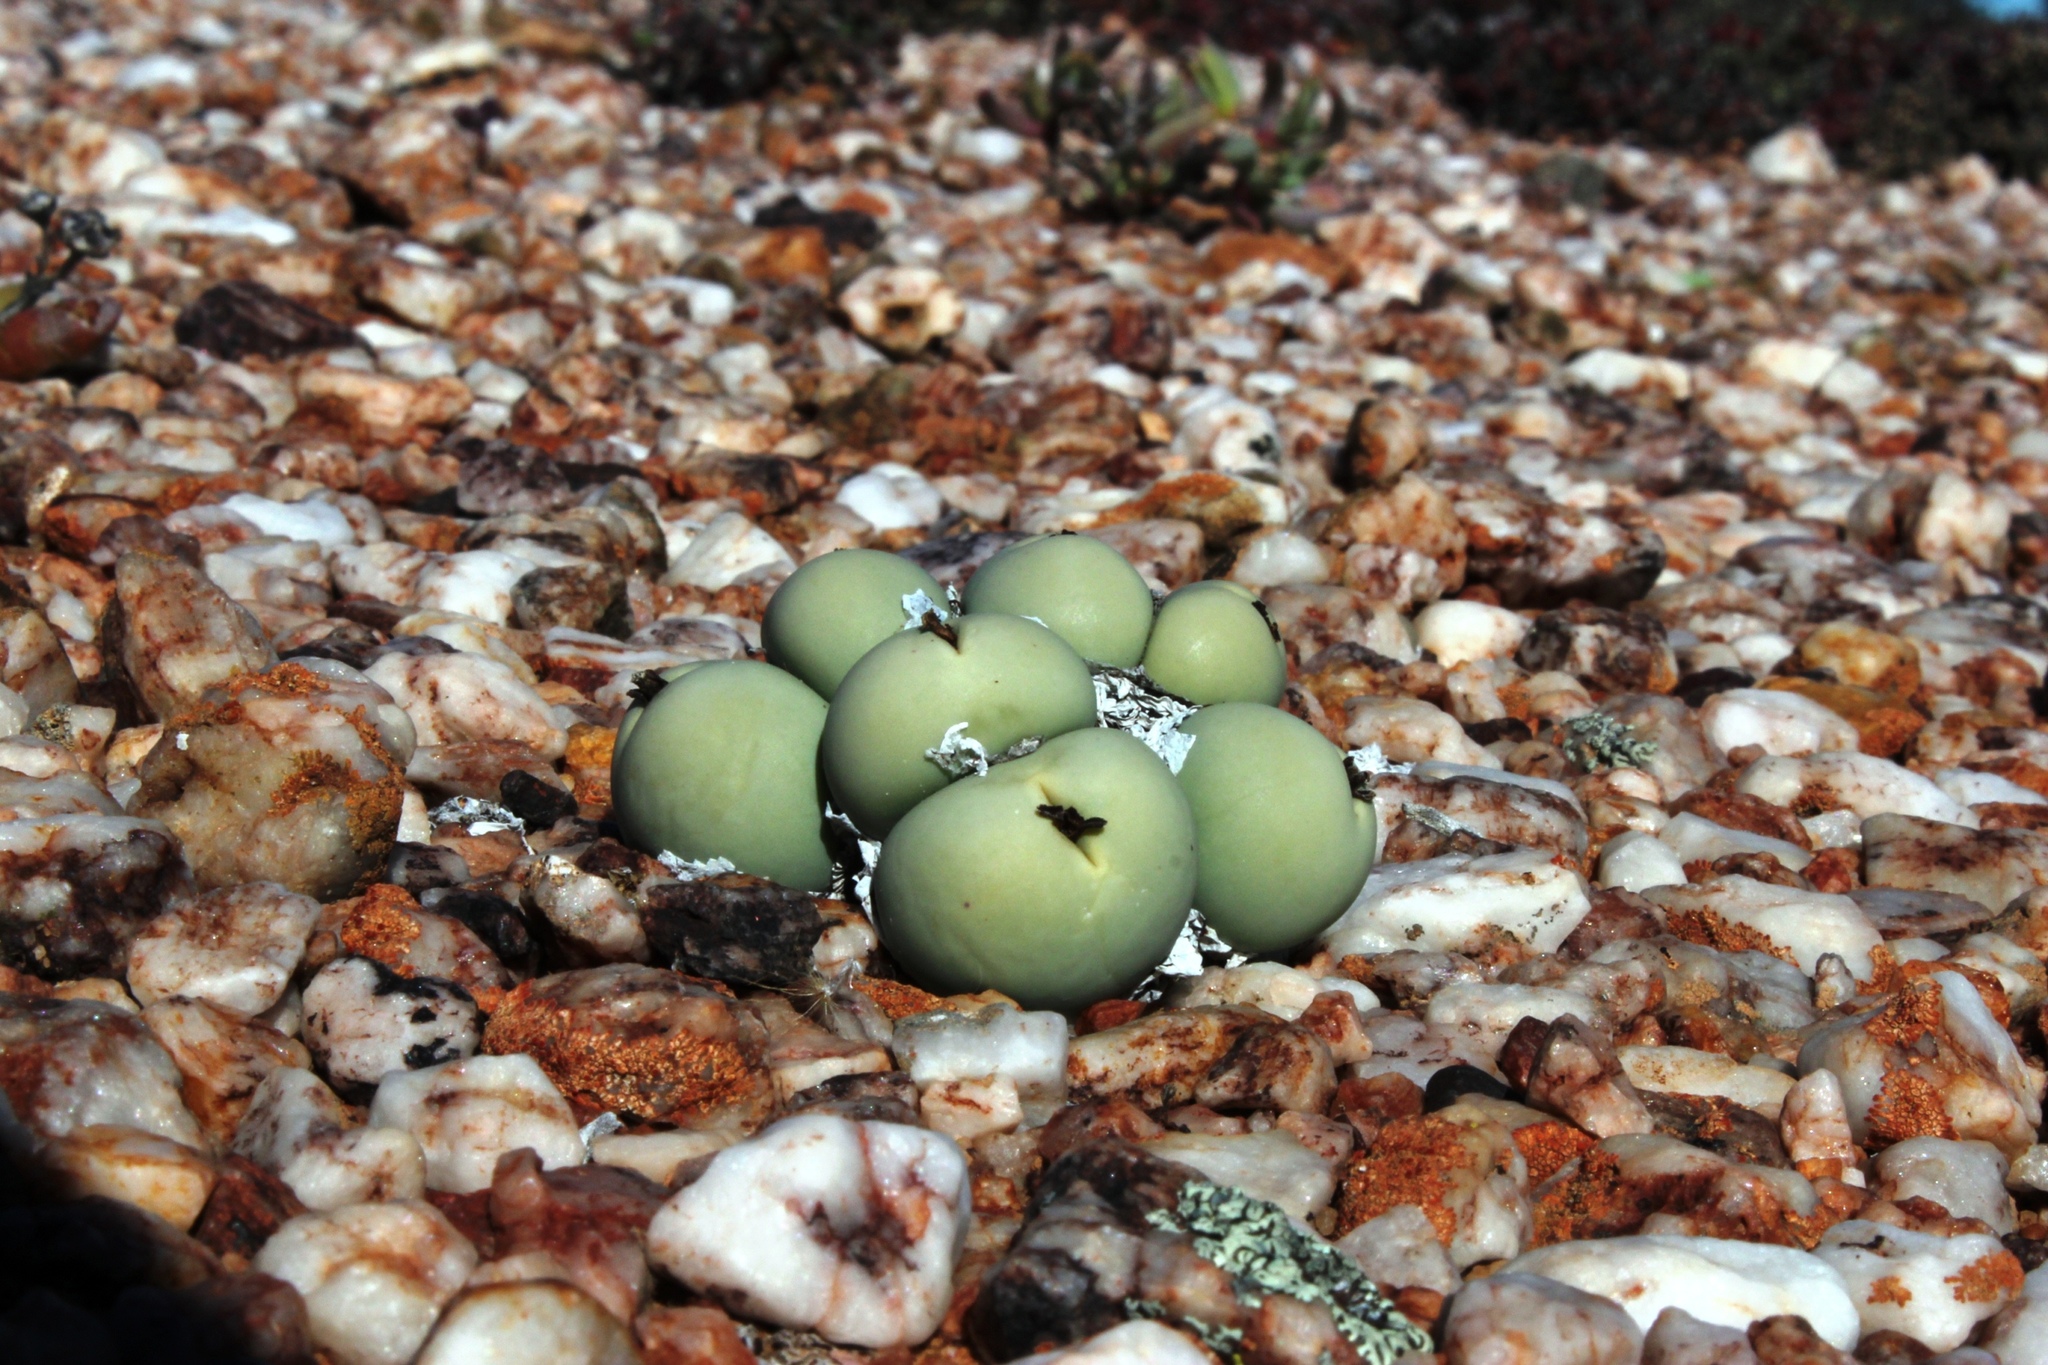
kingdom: Plantae
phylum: Tracheophyta
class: Magnoliopsida
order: Caryophyllales
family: Aizoaceae
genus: Conophytum
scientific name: Conophytum calculus
